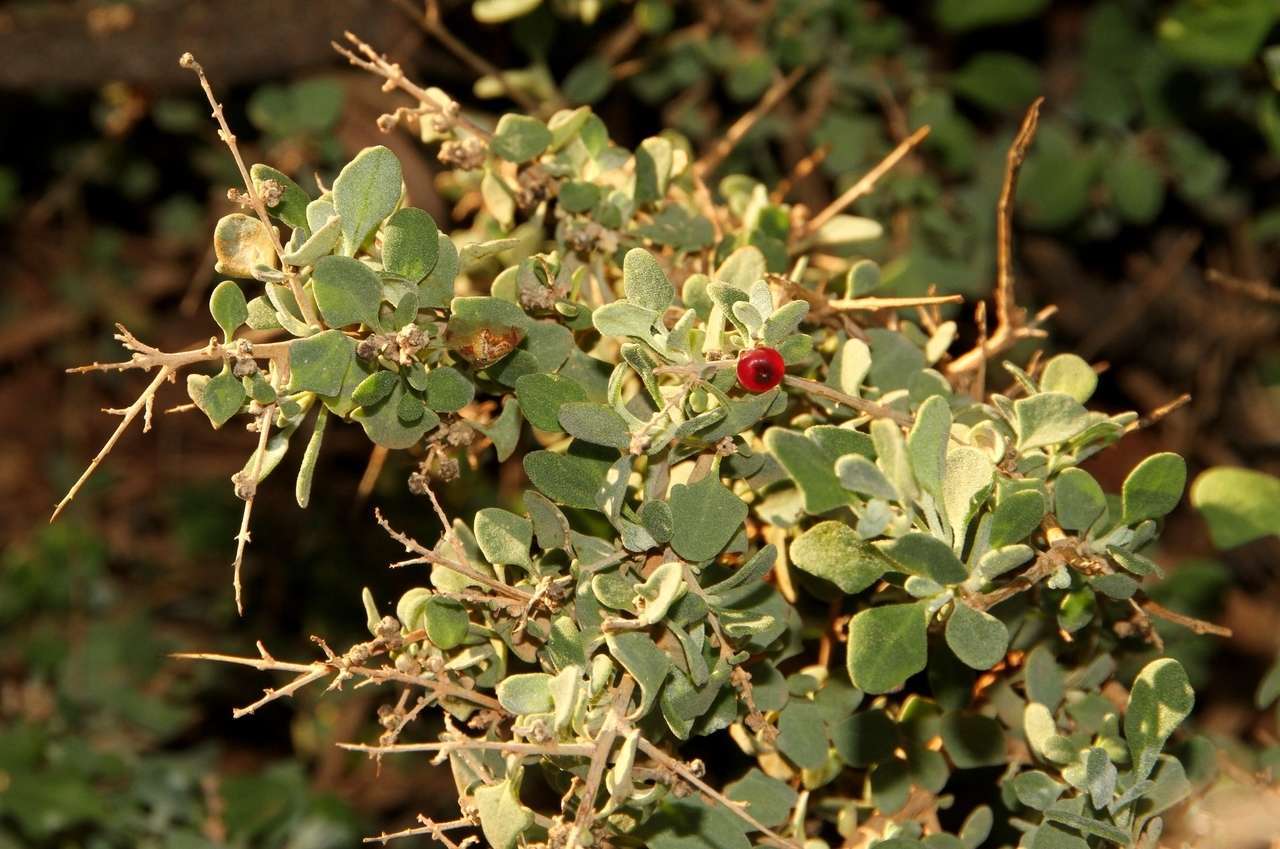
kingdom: Plantae
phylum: Tracheophyta
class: Magnoliopsida
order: Caryophyllales
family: Amaranthaceae
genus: Chenopodium
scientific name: Chenopodium spinescens
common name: Berry-saltbush
